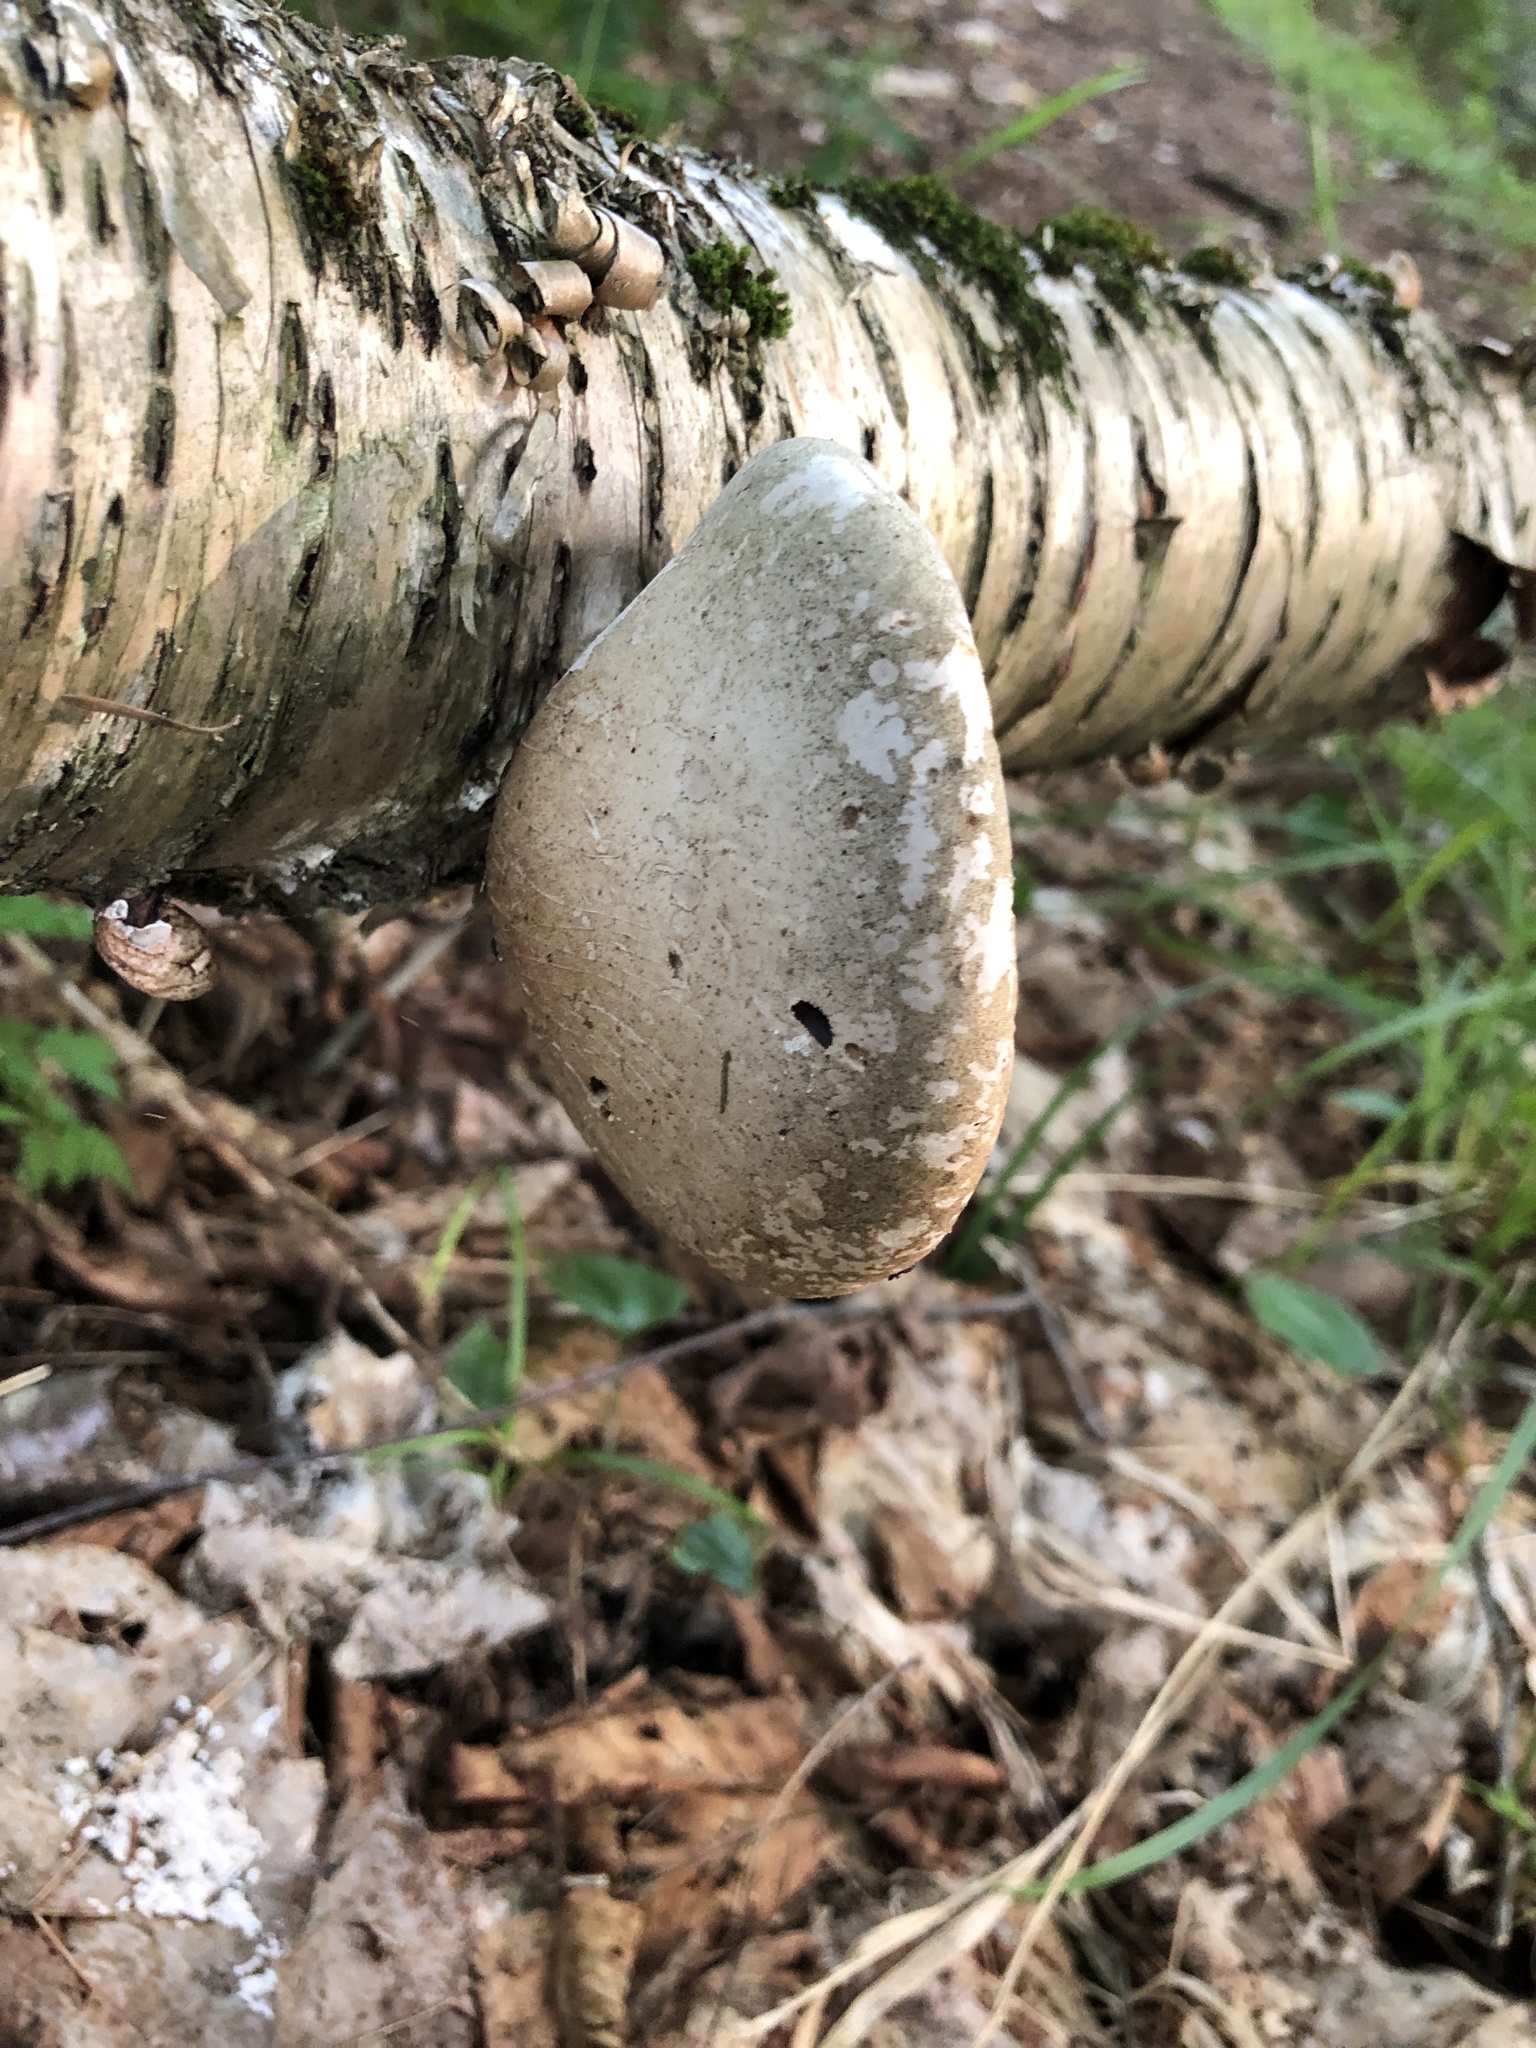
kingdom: Fungi
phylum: Basidiomycota
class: Agaricomycetes
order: Polyporales
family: Fomitopsidaceae
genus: Fomitopsis
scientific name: Fomitopsis betulina
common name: Birch polypore
